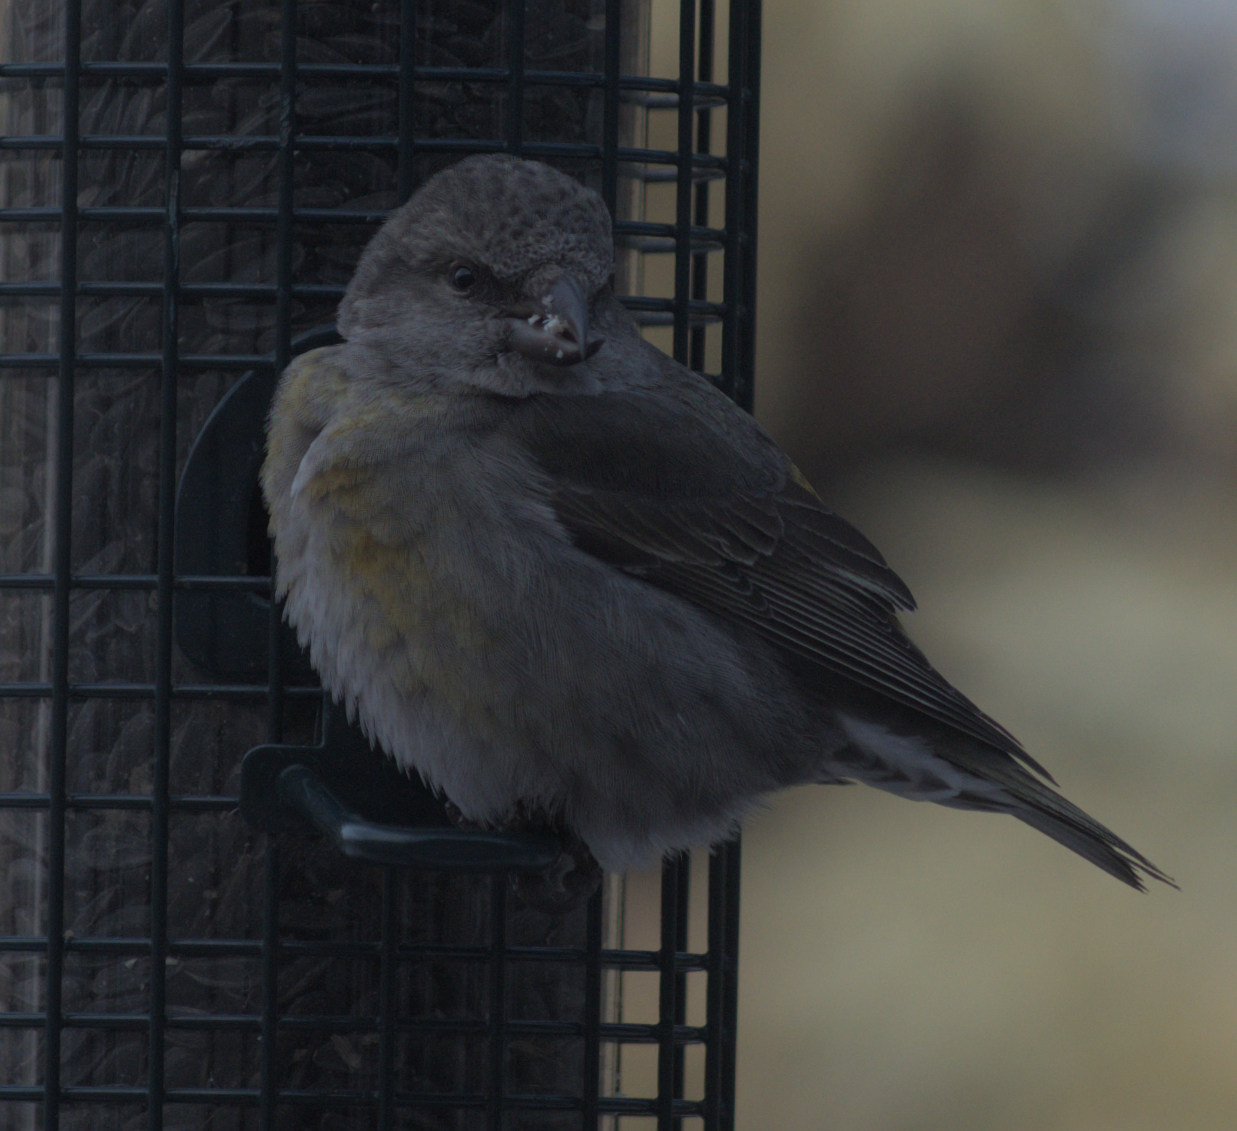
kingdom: Animalia
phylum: Chordata
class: Aves
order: Passeriformes
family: Fringillidae
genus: Loxia
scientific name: Loxia curvirostra
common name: Red crossbill
